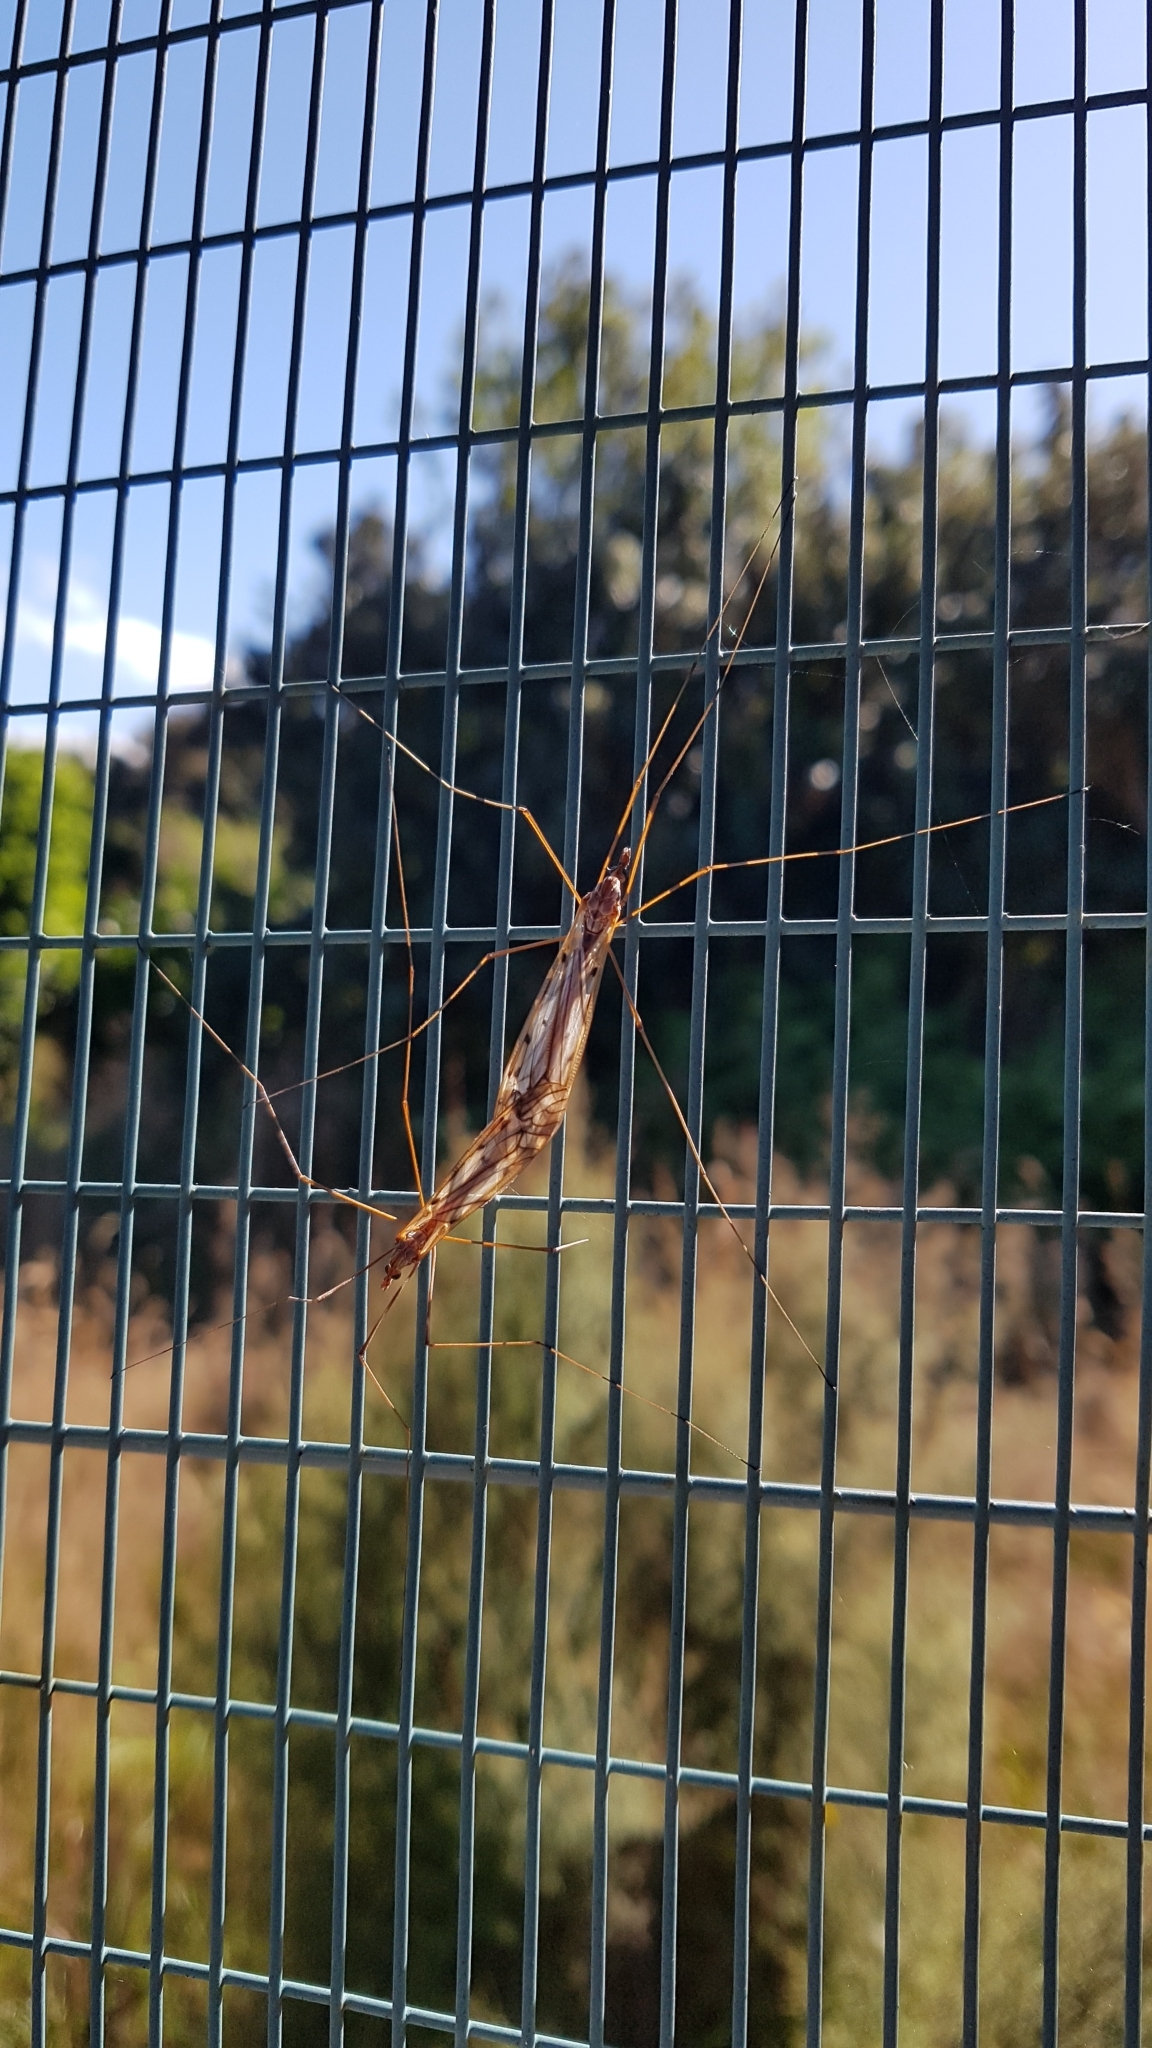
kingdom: Animalia
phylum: Arthropoda
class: Insecta
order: Diptera
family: Tipulidae
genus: Zelandotipula
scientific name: Zelandotipula novarae
